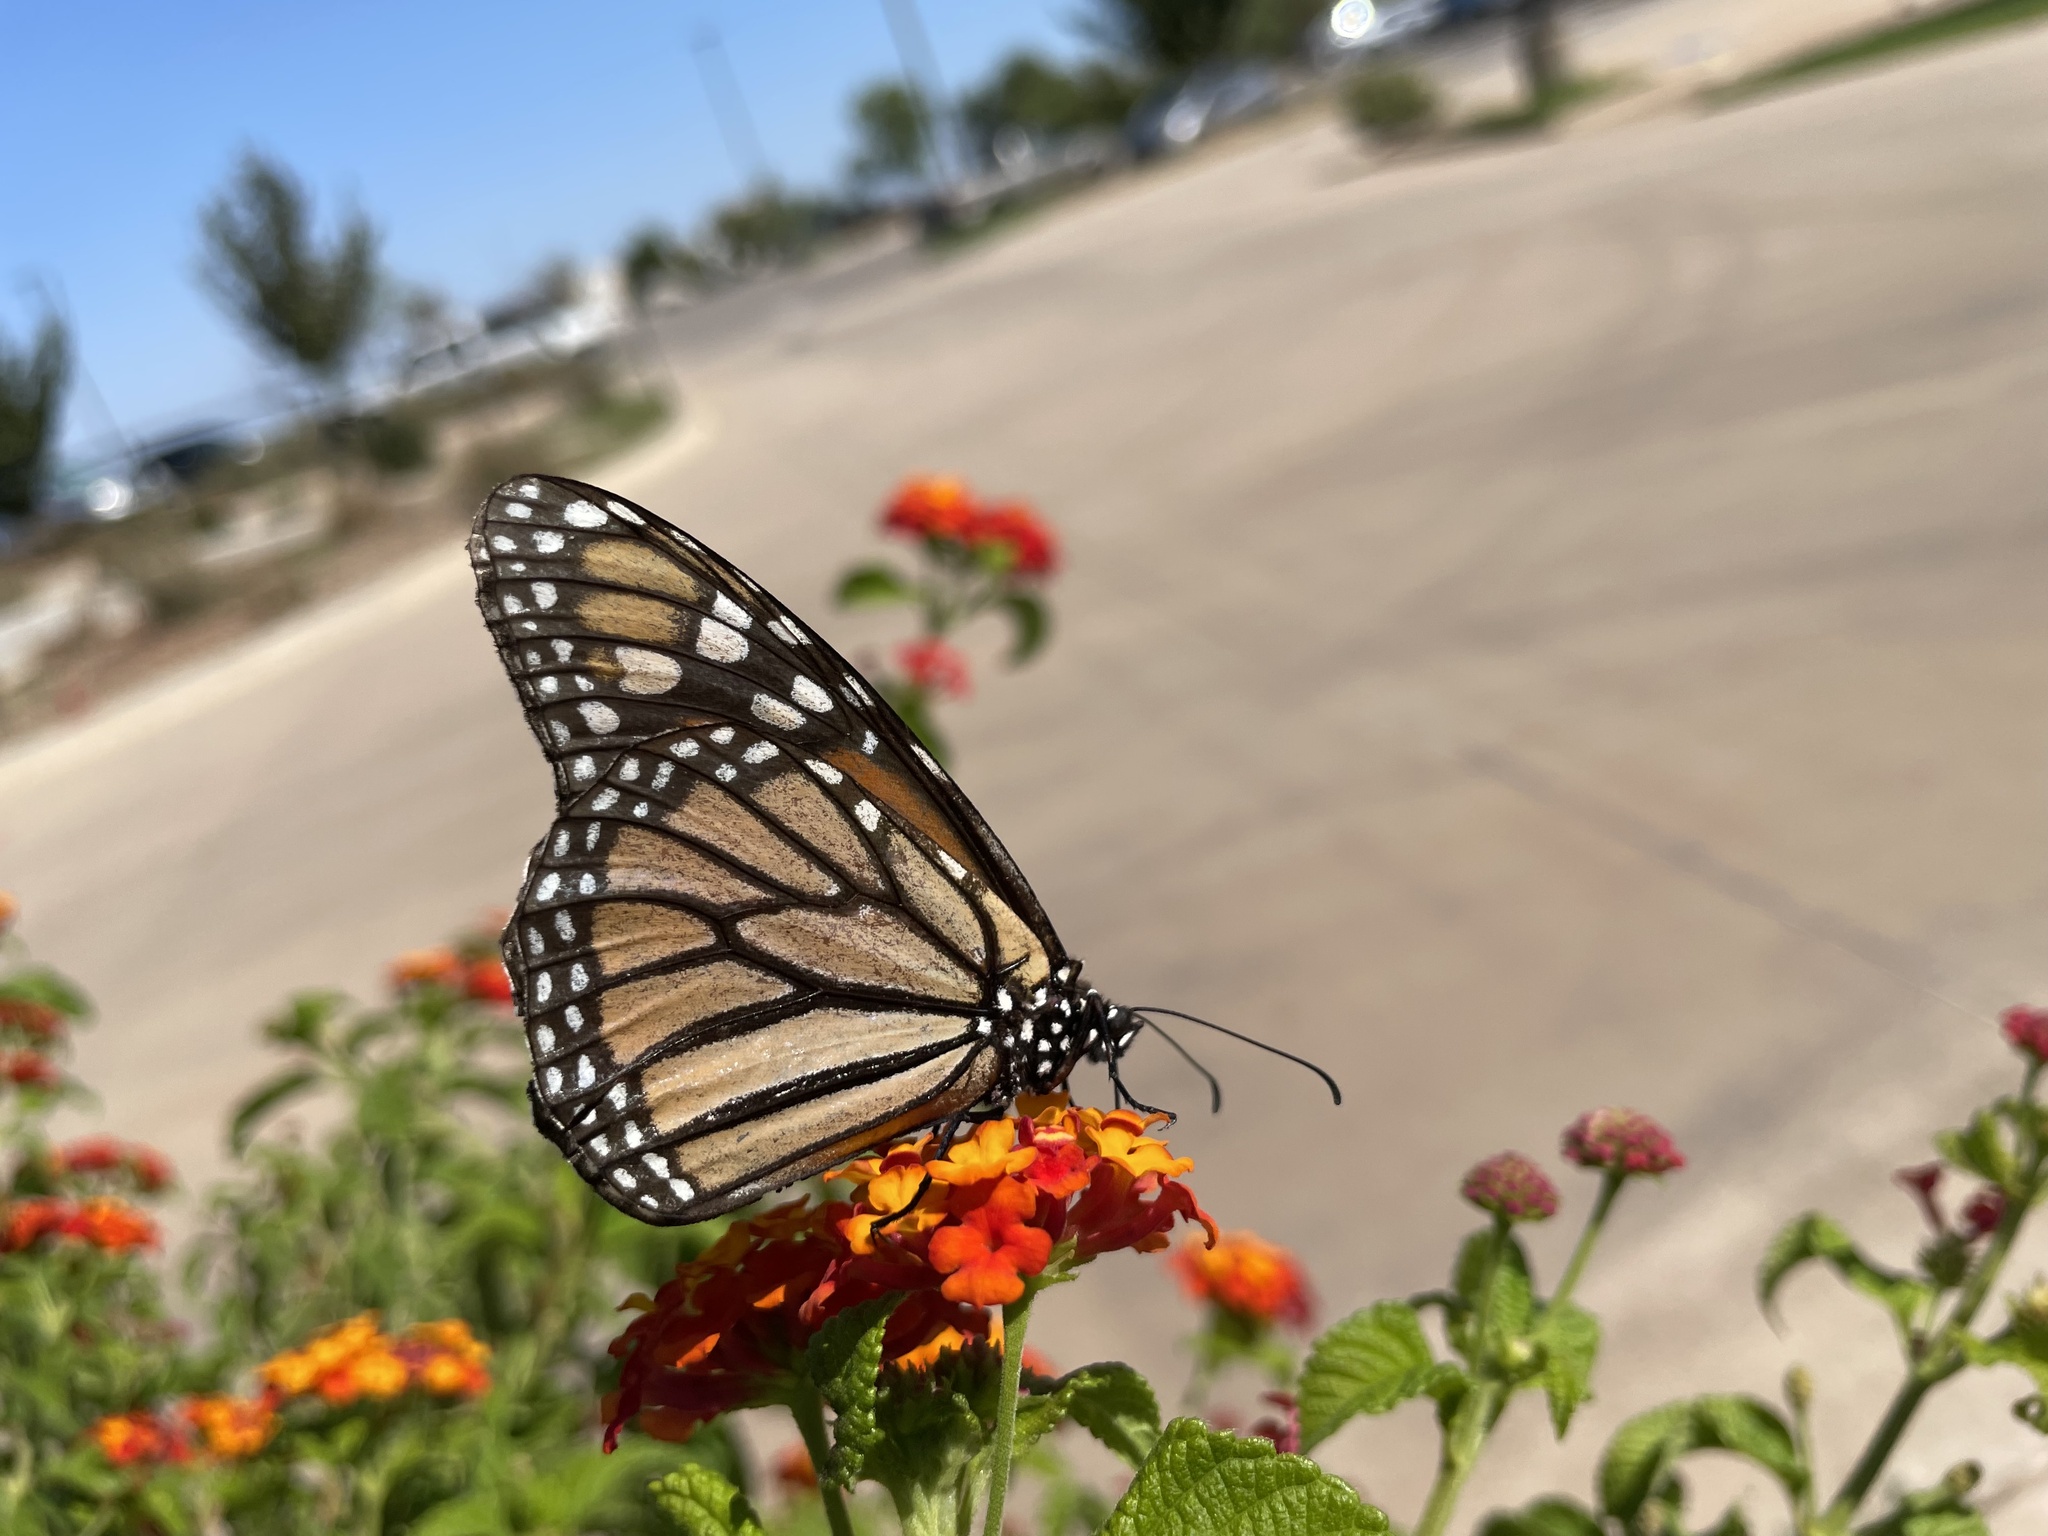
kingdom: Animalia
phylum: Arthropoda
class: Insecta
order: Lepidoptera
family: Nymphalidae
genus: Danaus
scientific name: Danaus plexippus
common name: Monarch
